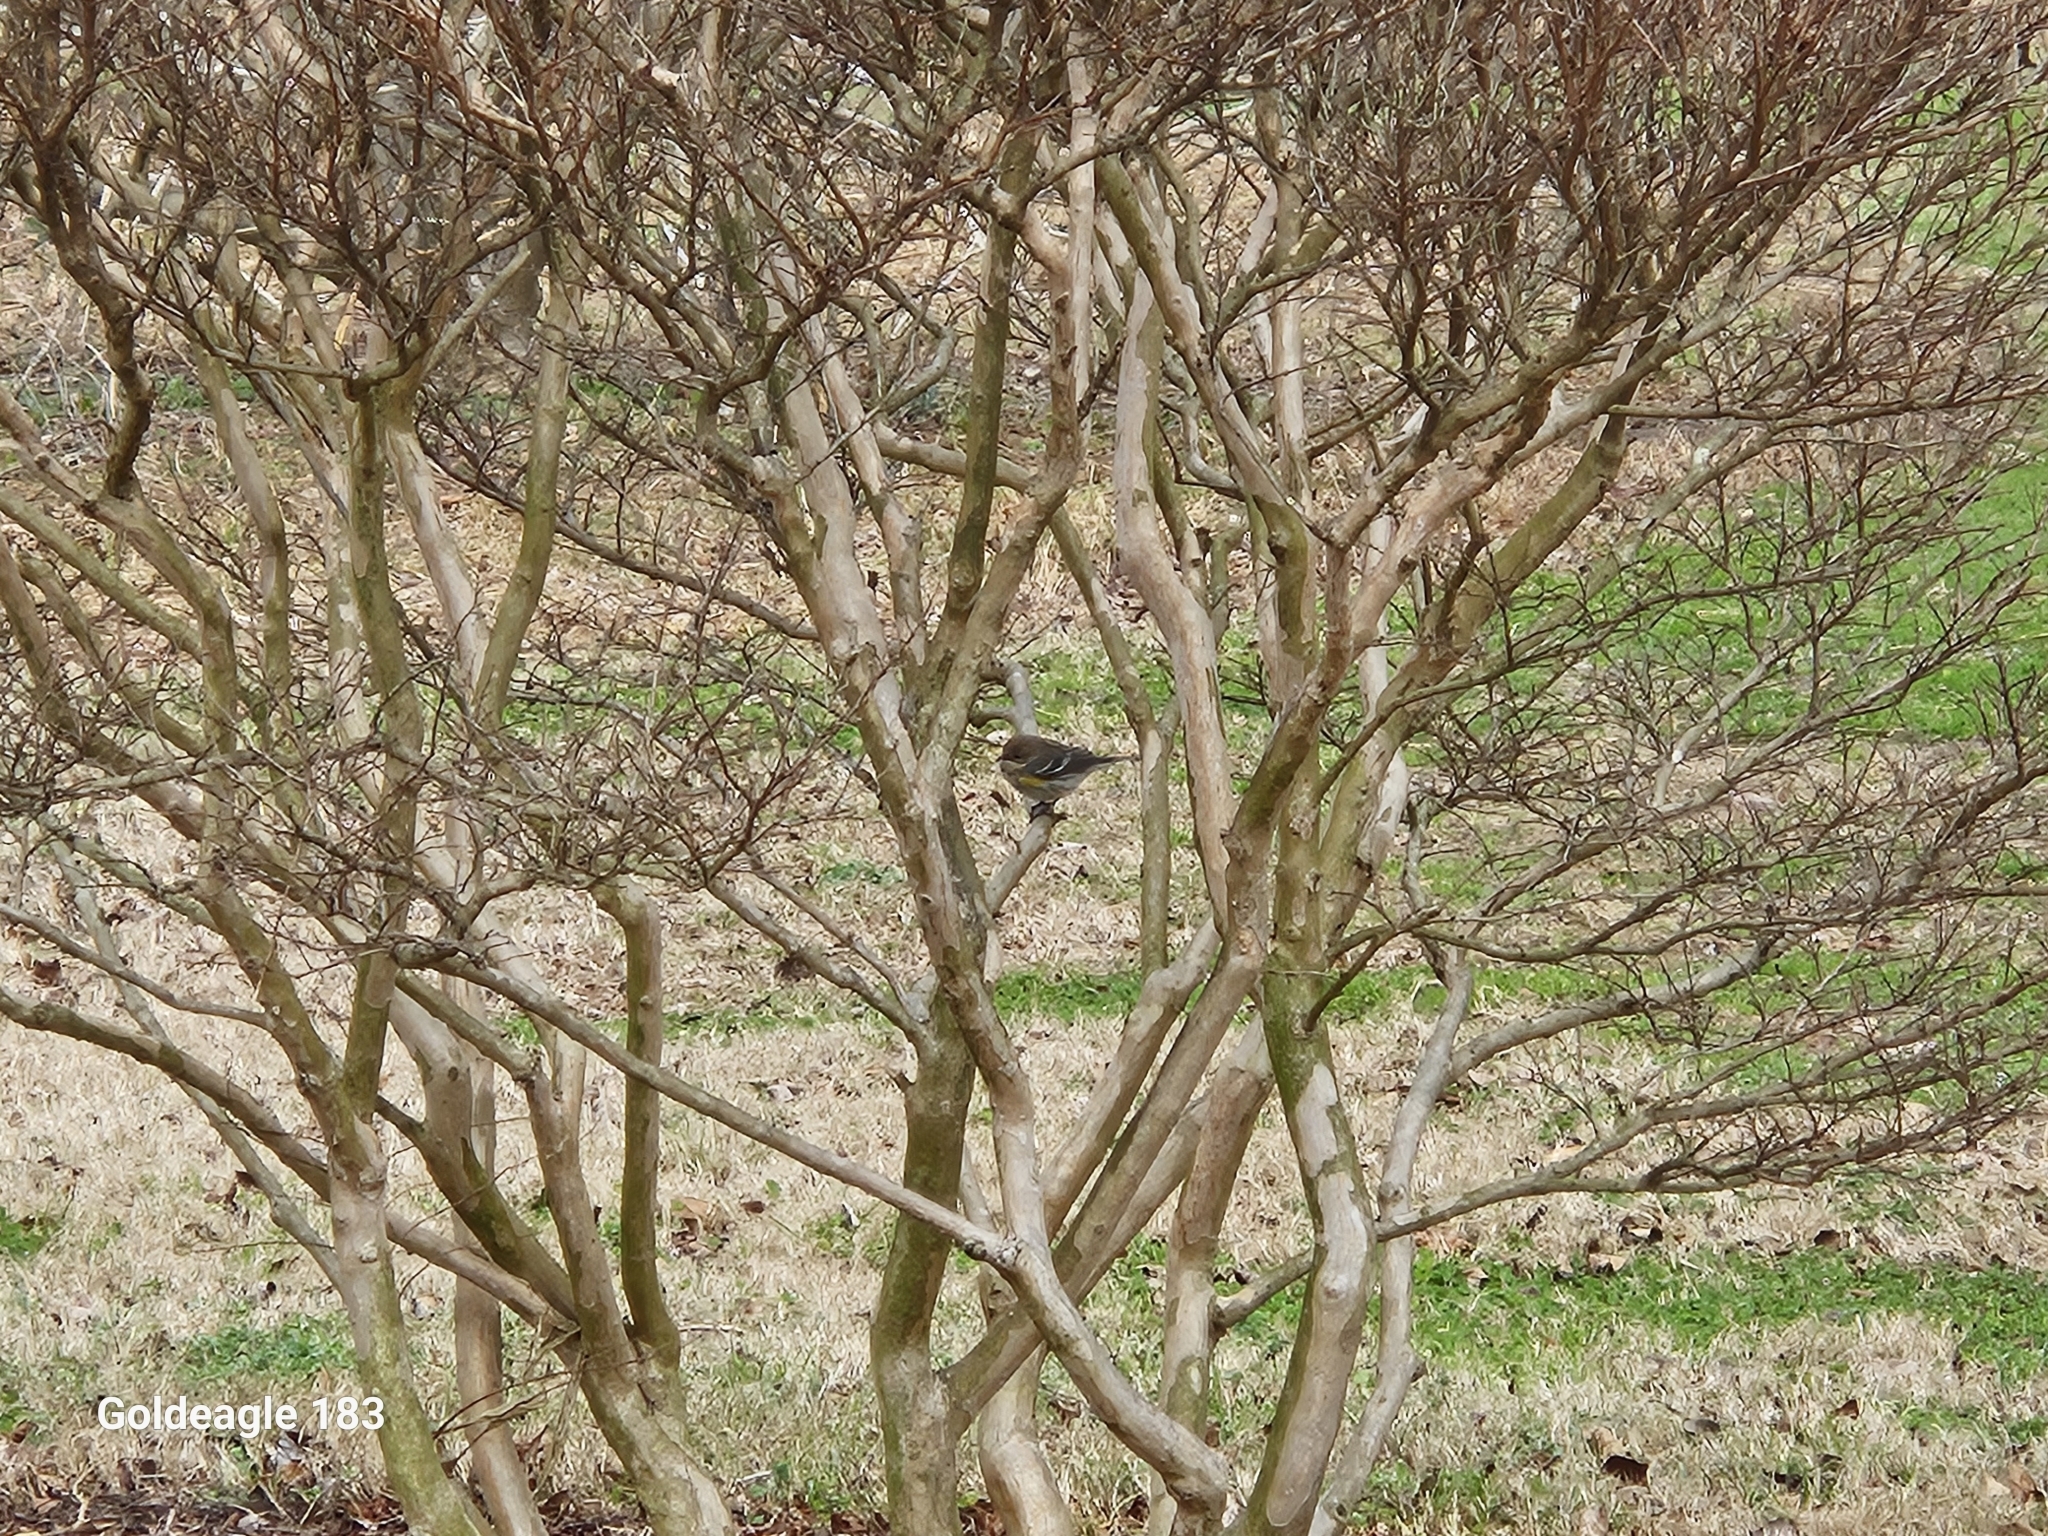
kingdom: Animalia
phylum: Chordata
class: Aves
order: Passeriformes
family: Parulidae
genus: Setophaga
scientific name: Setophaga coronata
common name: Myrtle warbler
